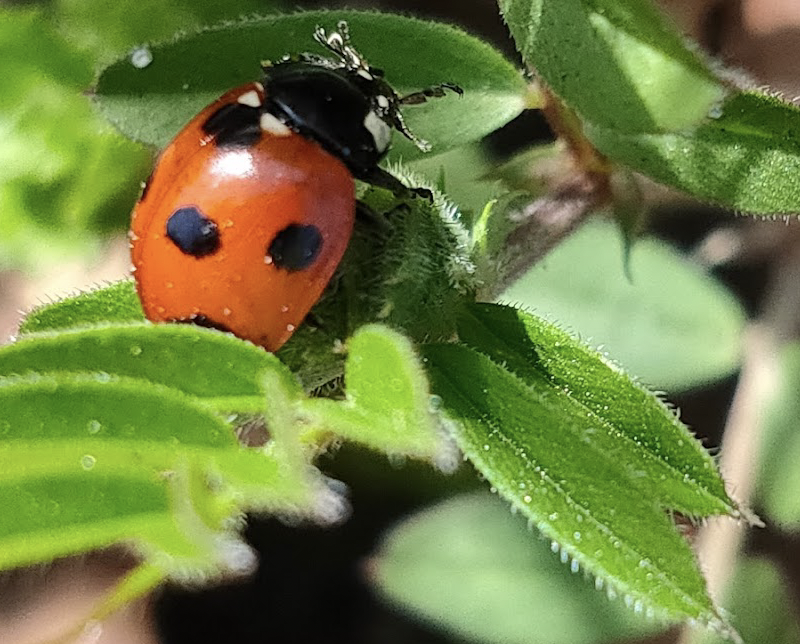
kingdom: Animalia
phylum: Arthropoda
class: Insecta
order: Coleoptera
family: Coccinellidae
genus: Coccinella
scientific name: Coccinella septempunctata
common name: Sevenspotted lady beetle
